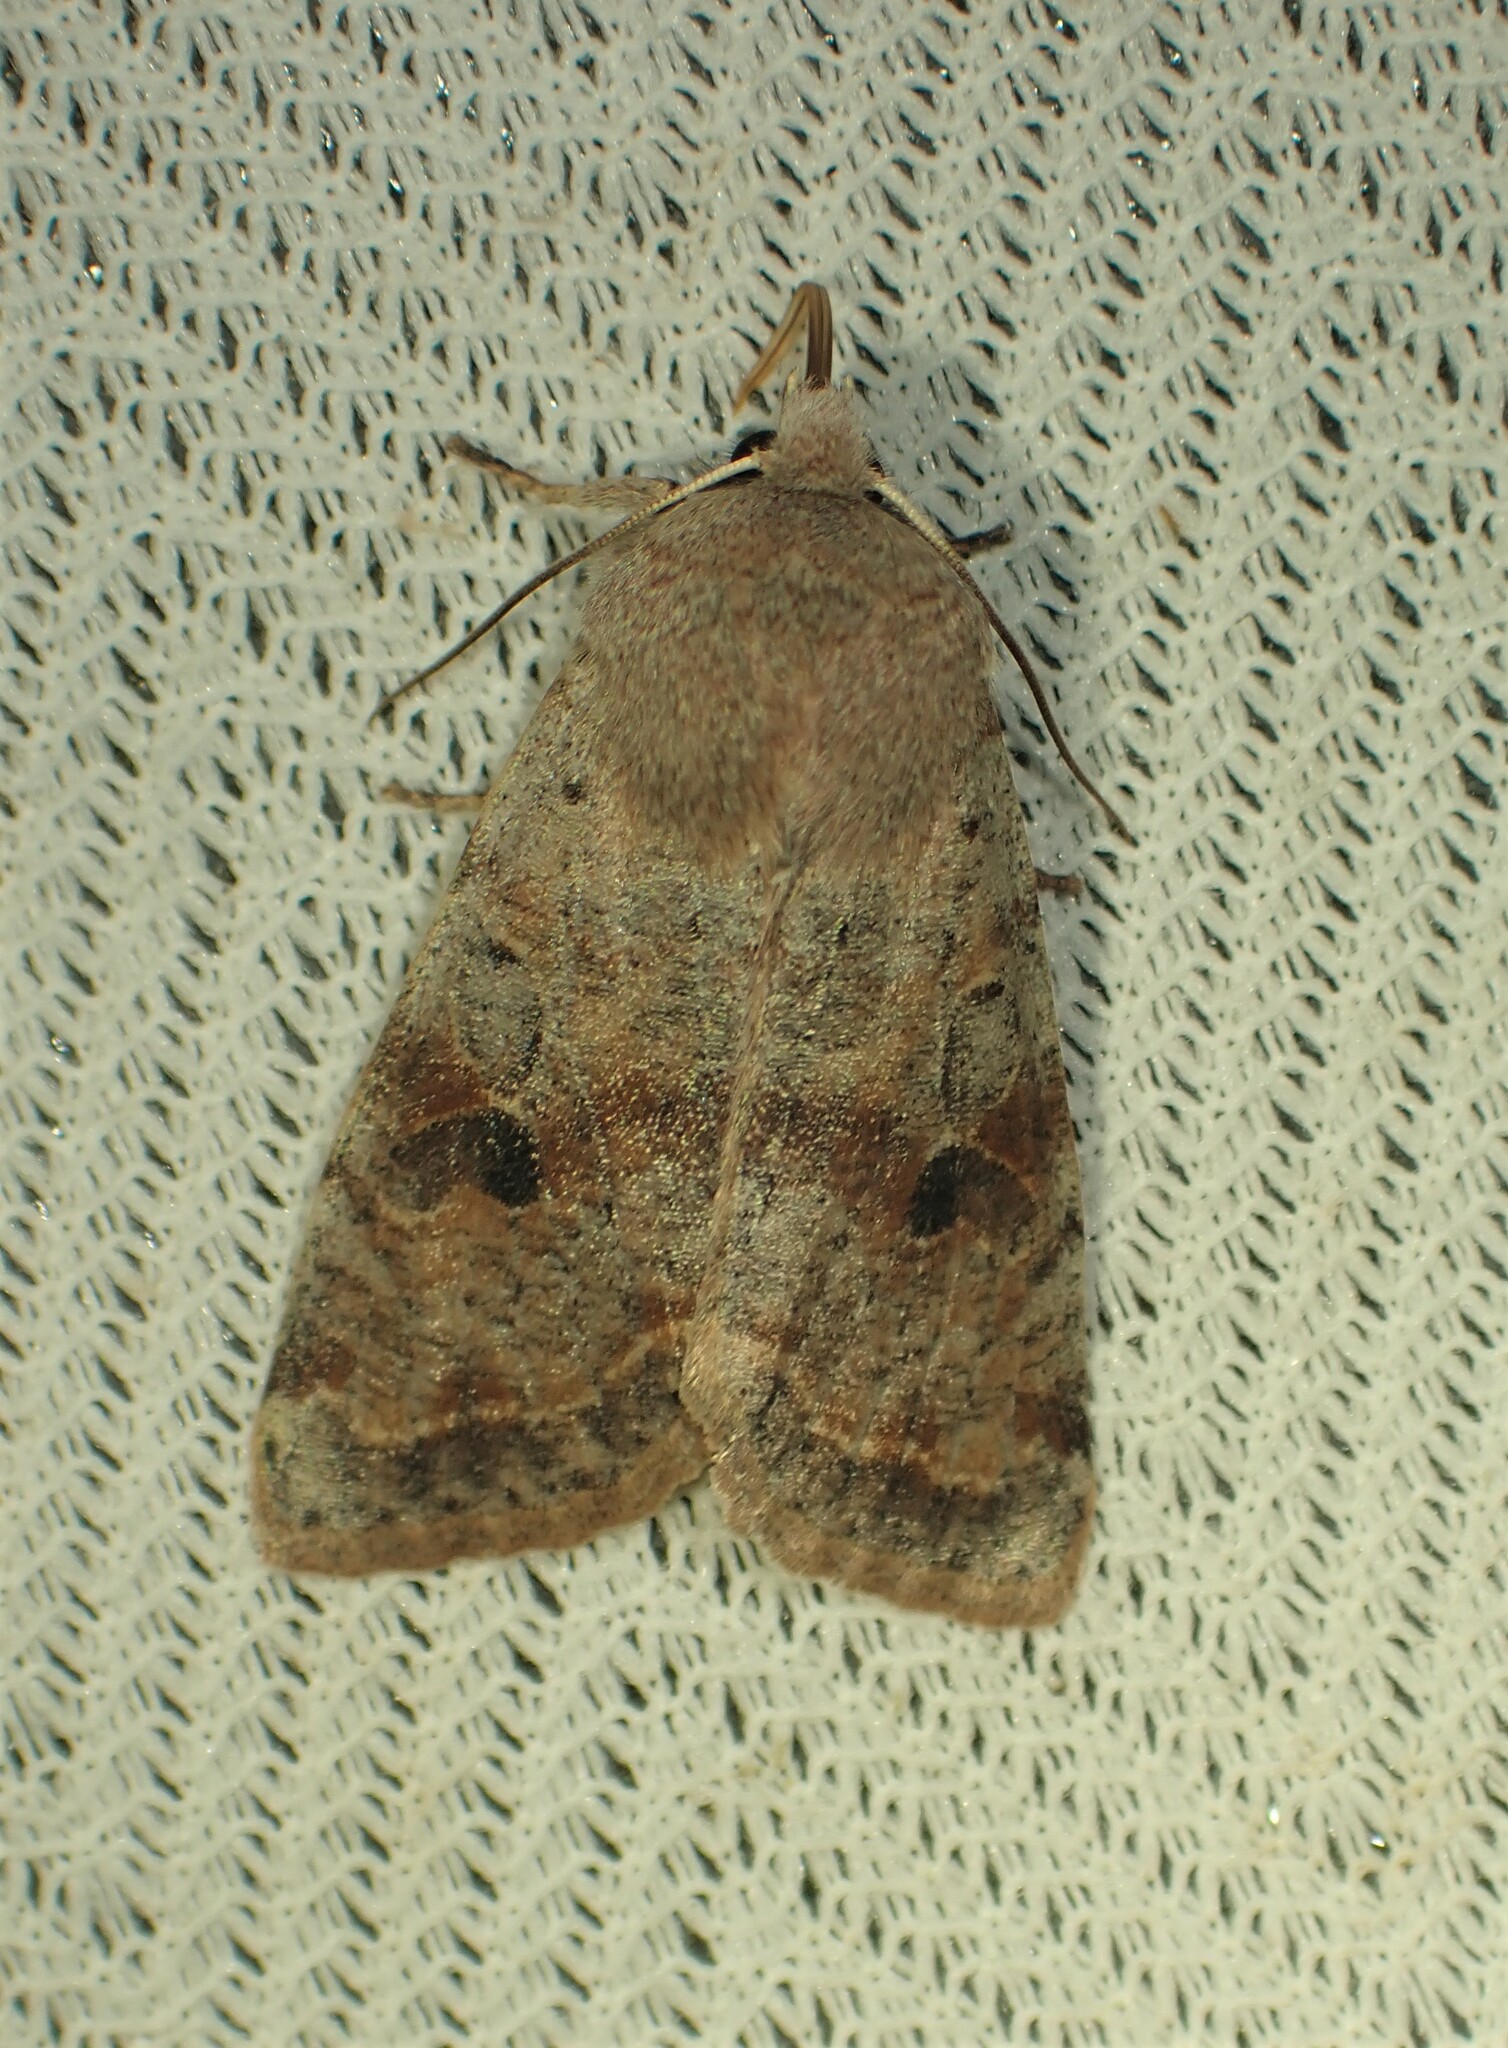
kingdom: Animalia
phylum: Arthropoda
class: Insecta
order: Lepidoptera
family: Noctuidae
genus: Orthosia
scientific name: Orthosia hibisci
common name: Green fruitworm
